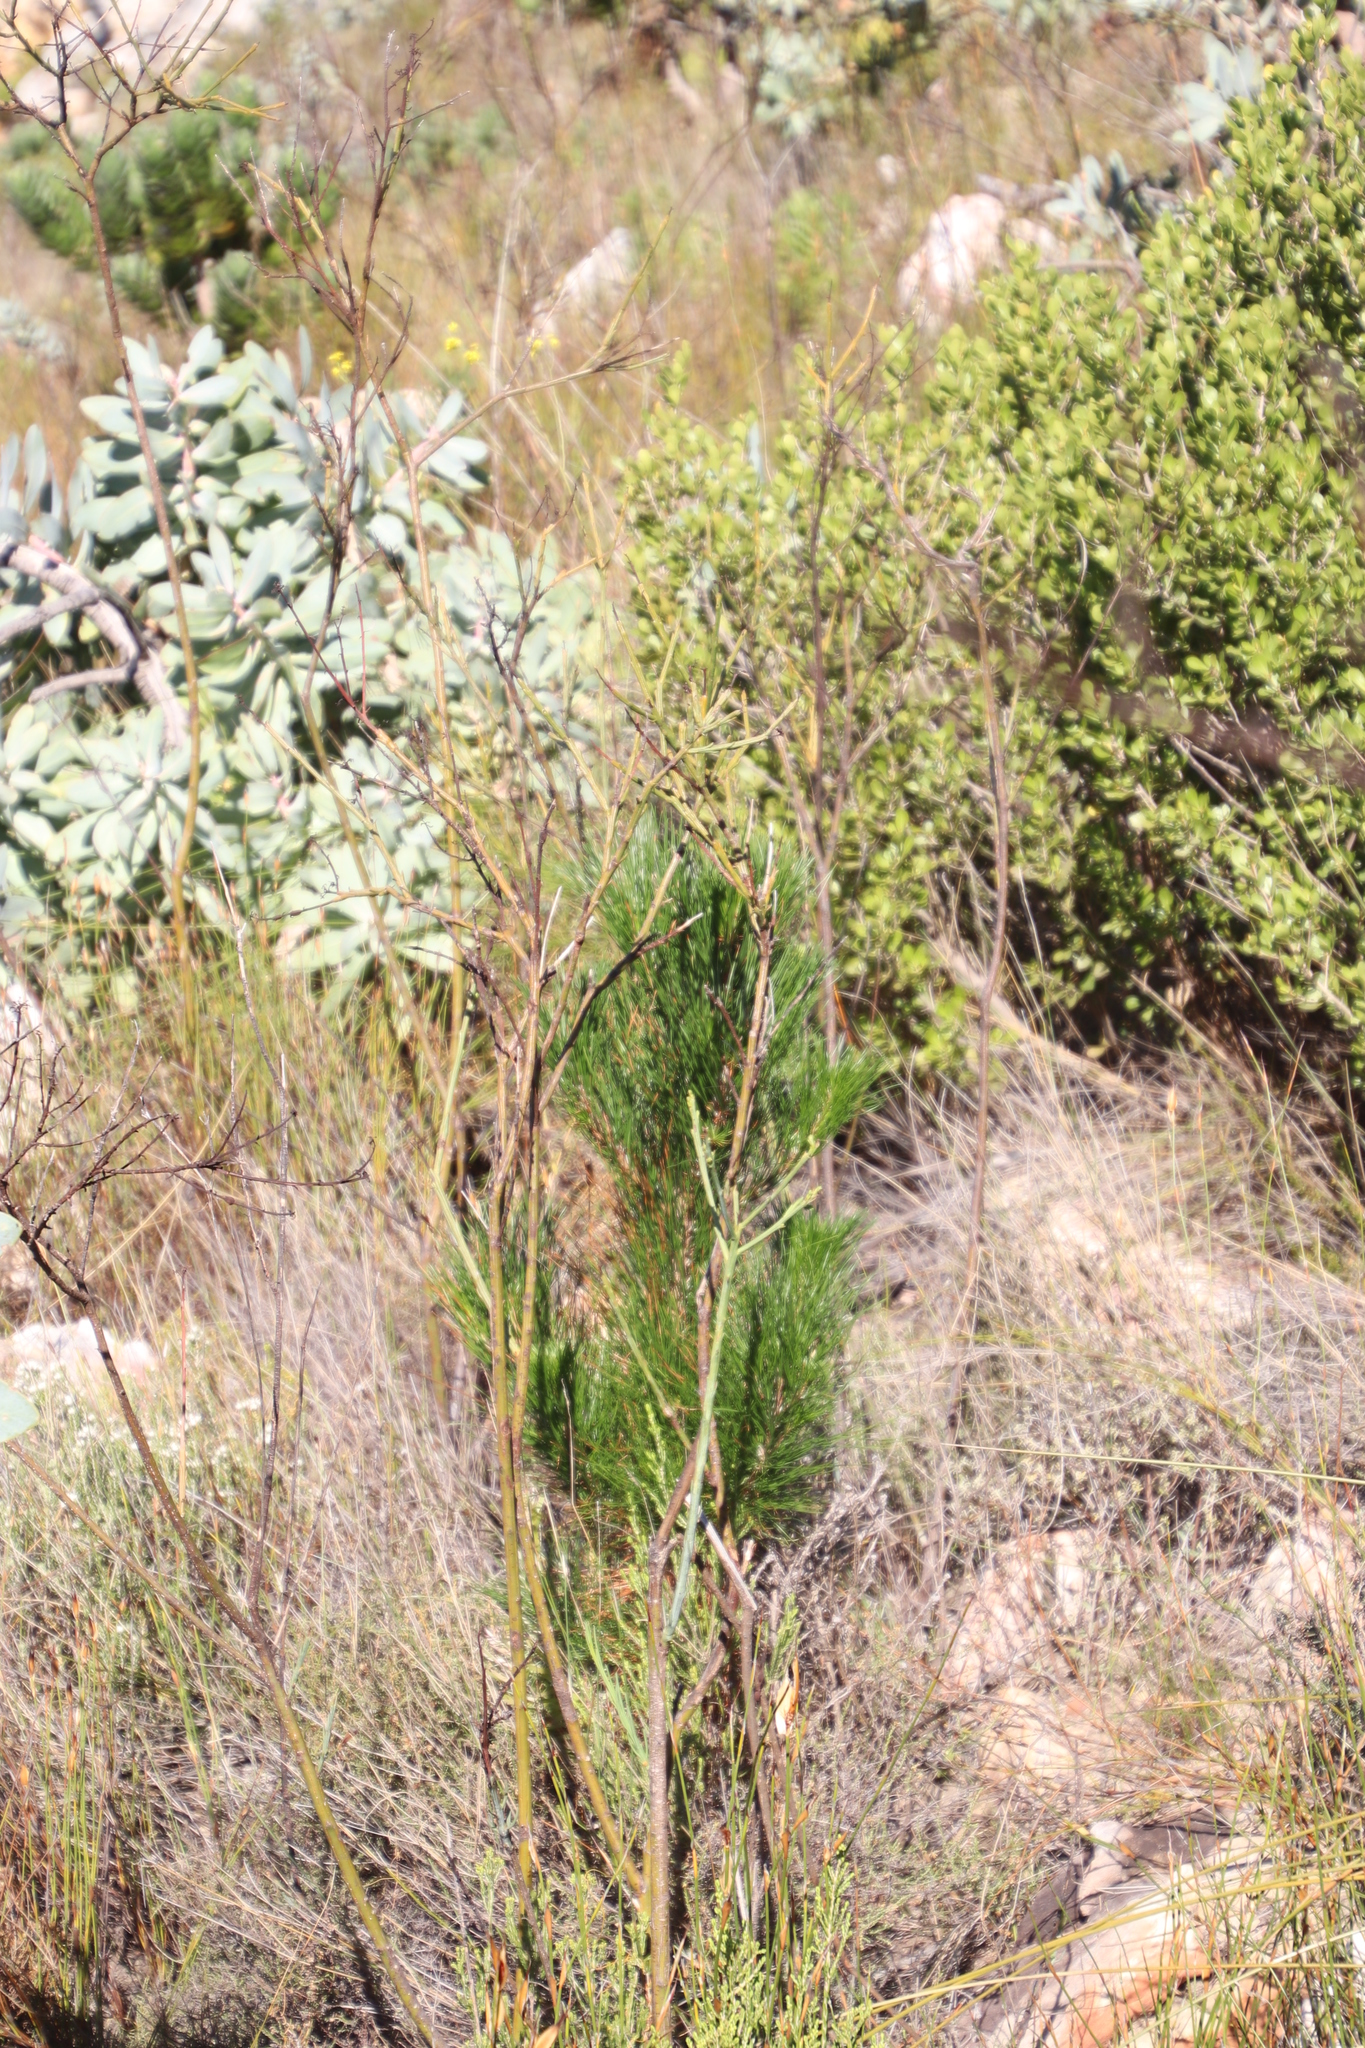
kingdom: Plantae
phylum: Tracheophyta
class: Pinopsida
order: Pinales
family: Pinaceae
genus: Pinus
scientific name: Pinus radiata
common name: Monterey pine
